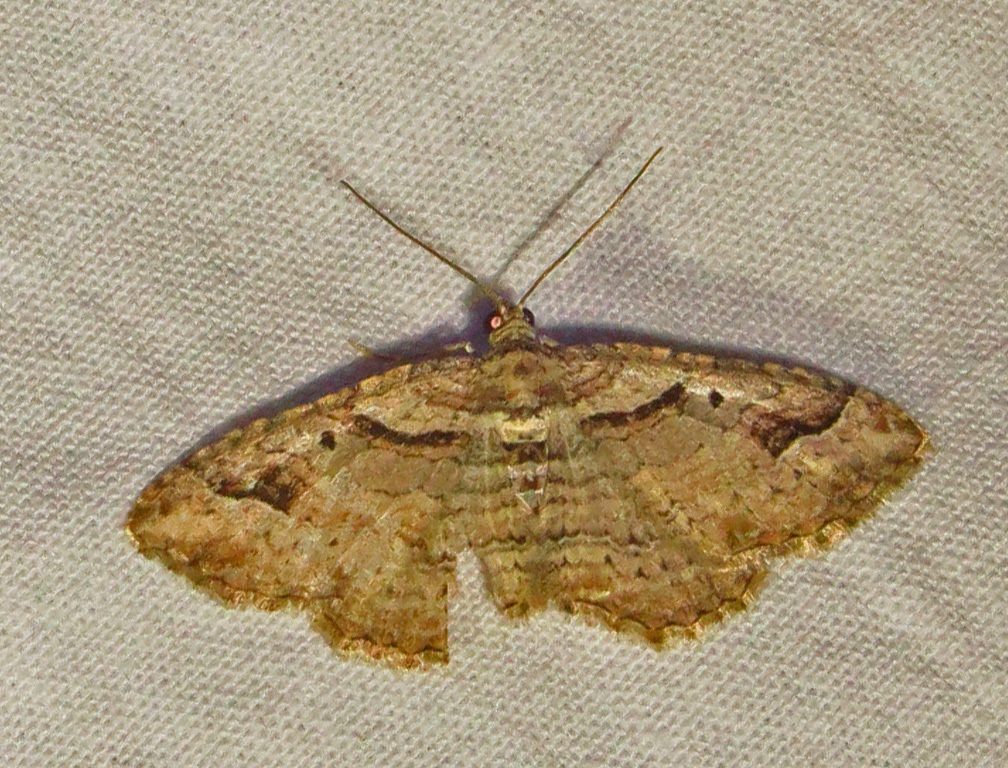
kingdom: Animalia
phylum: Arthropoda
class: Insecta
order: Lepidoptera
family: Geometridae
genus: Costaconvexa
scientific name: Costaconvexa centrostrigaria
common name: Bent-line carpet
